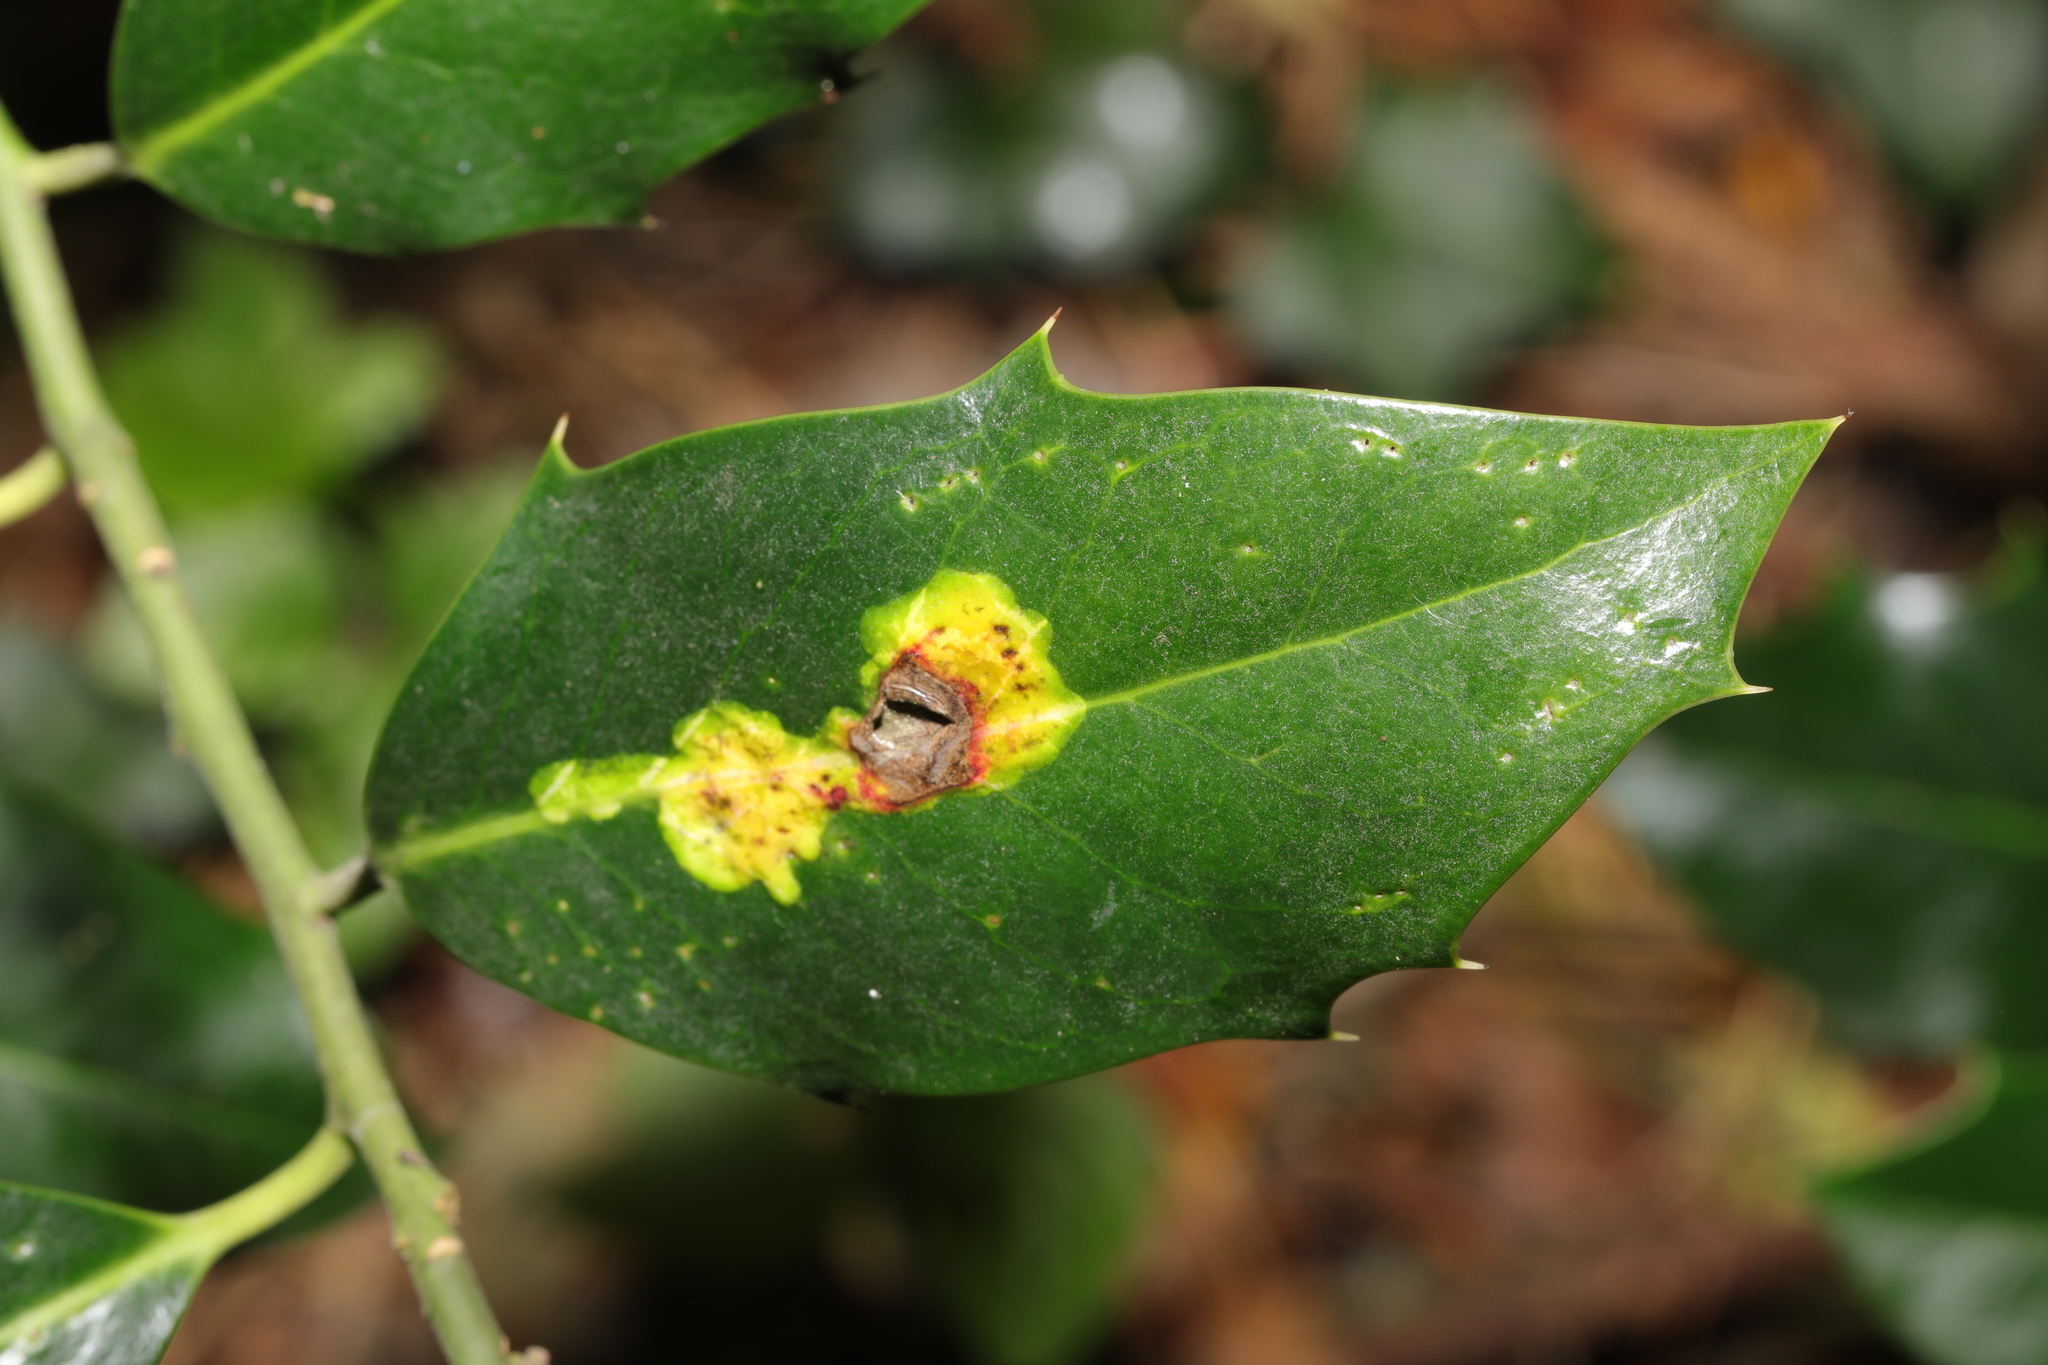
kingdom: Animalia
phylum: Arthropoda
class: Insecta
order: Diptera
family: Agromyzidae
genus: Phytomyza
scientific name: Phytomyza ilicis
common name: Holly leafminer
